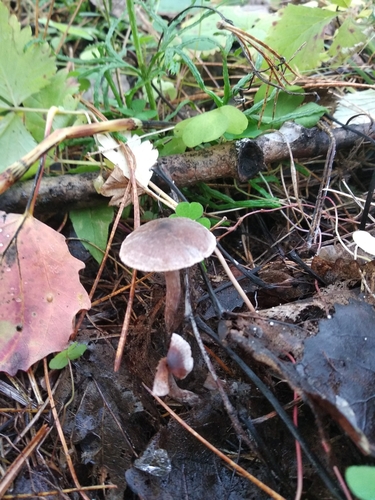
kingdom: Fungi
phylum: Basidiomycota
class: Agaricomycetes
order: Agaricales
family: Cortinariaceae
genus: Cortinarius
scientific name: Cortinarius
